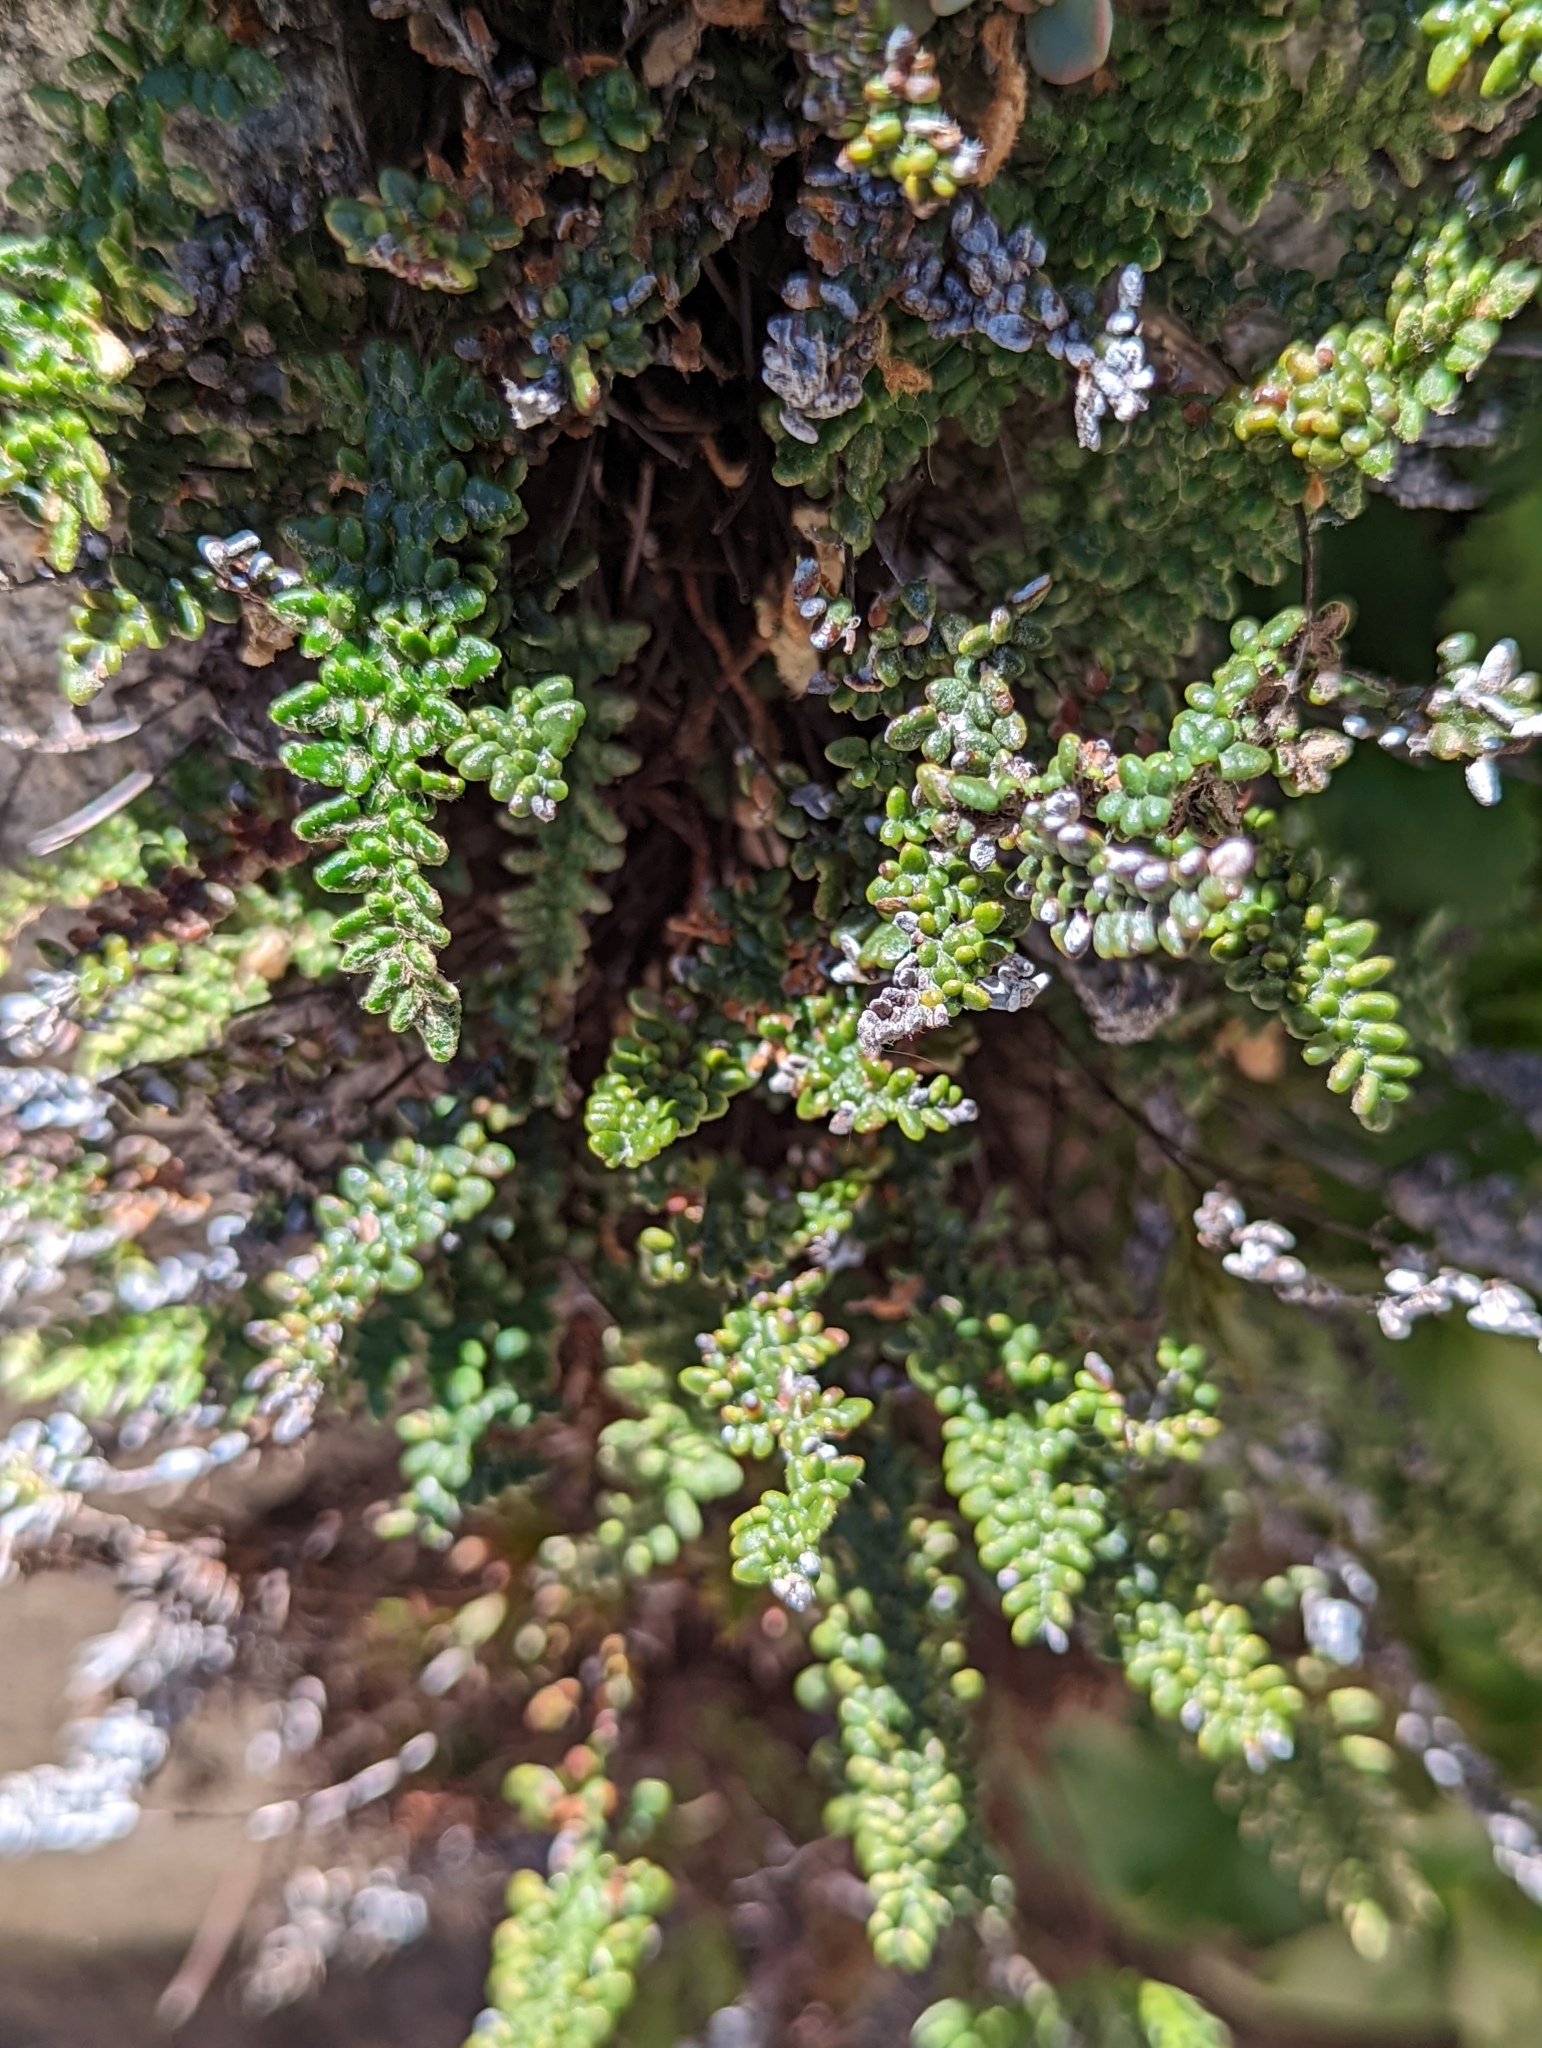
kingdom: Plantae
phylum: Tracheophyta
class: Polypodiopsida
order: Polypodiales
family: Pteridaceae
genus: Myriopteris
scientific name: Myriopteris gracillima
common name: Lace fern
